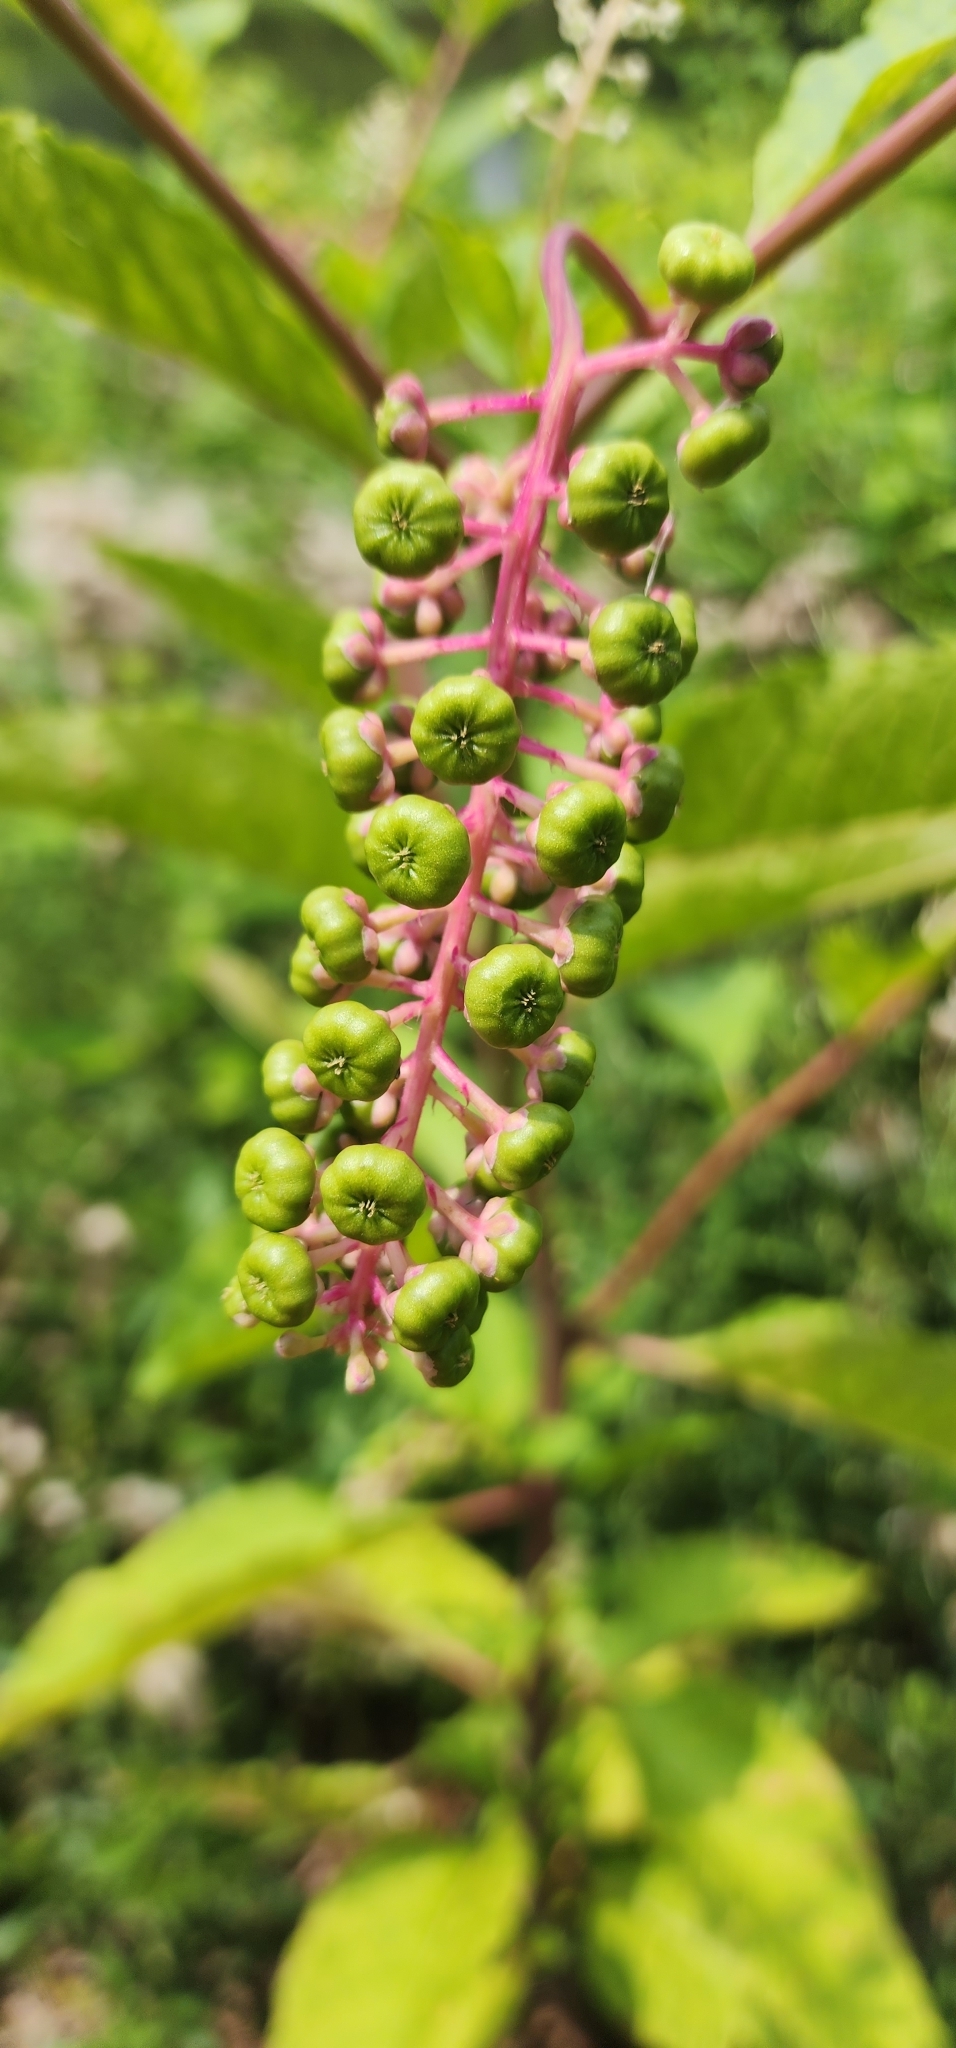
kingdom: Plantae
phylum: Tracheophyta
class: Magnoliopsida
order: Caryophyllales
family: Phytolaccaceae
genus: Phytolacca
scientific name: Phytolacca americana
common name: American pokeweed
